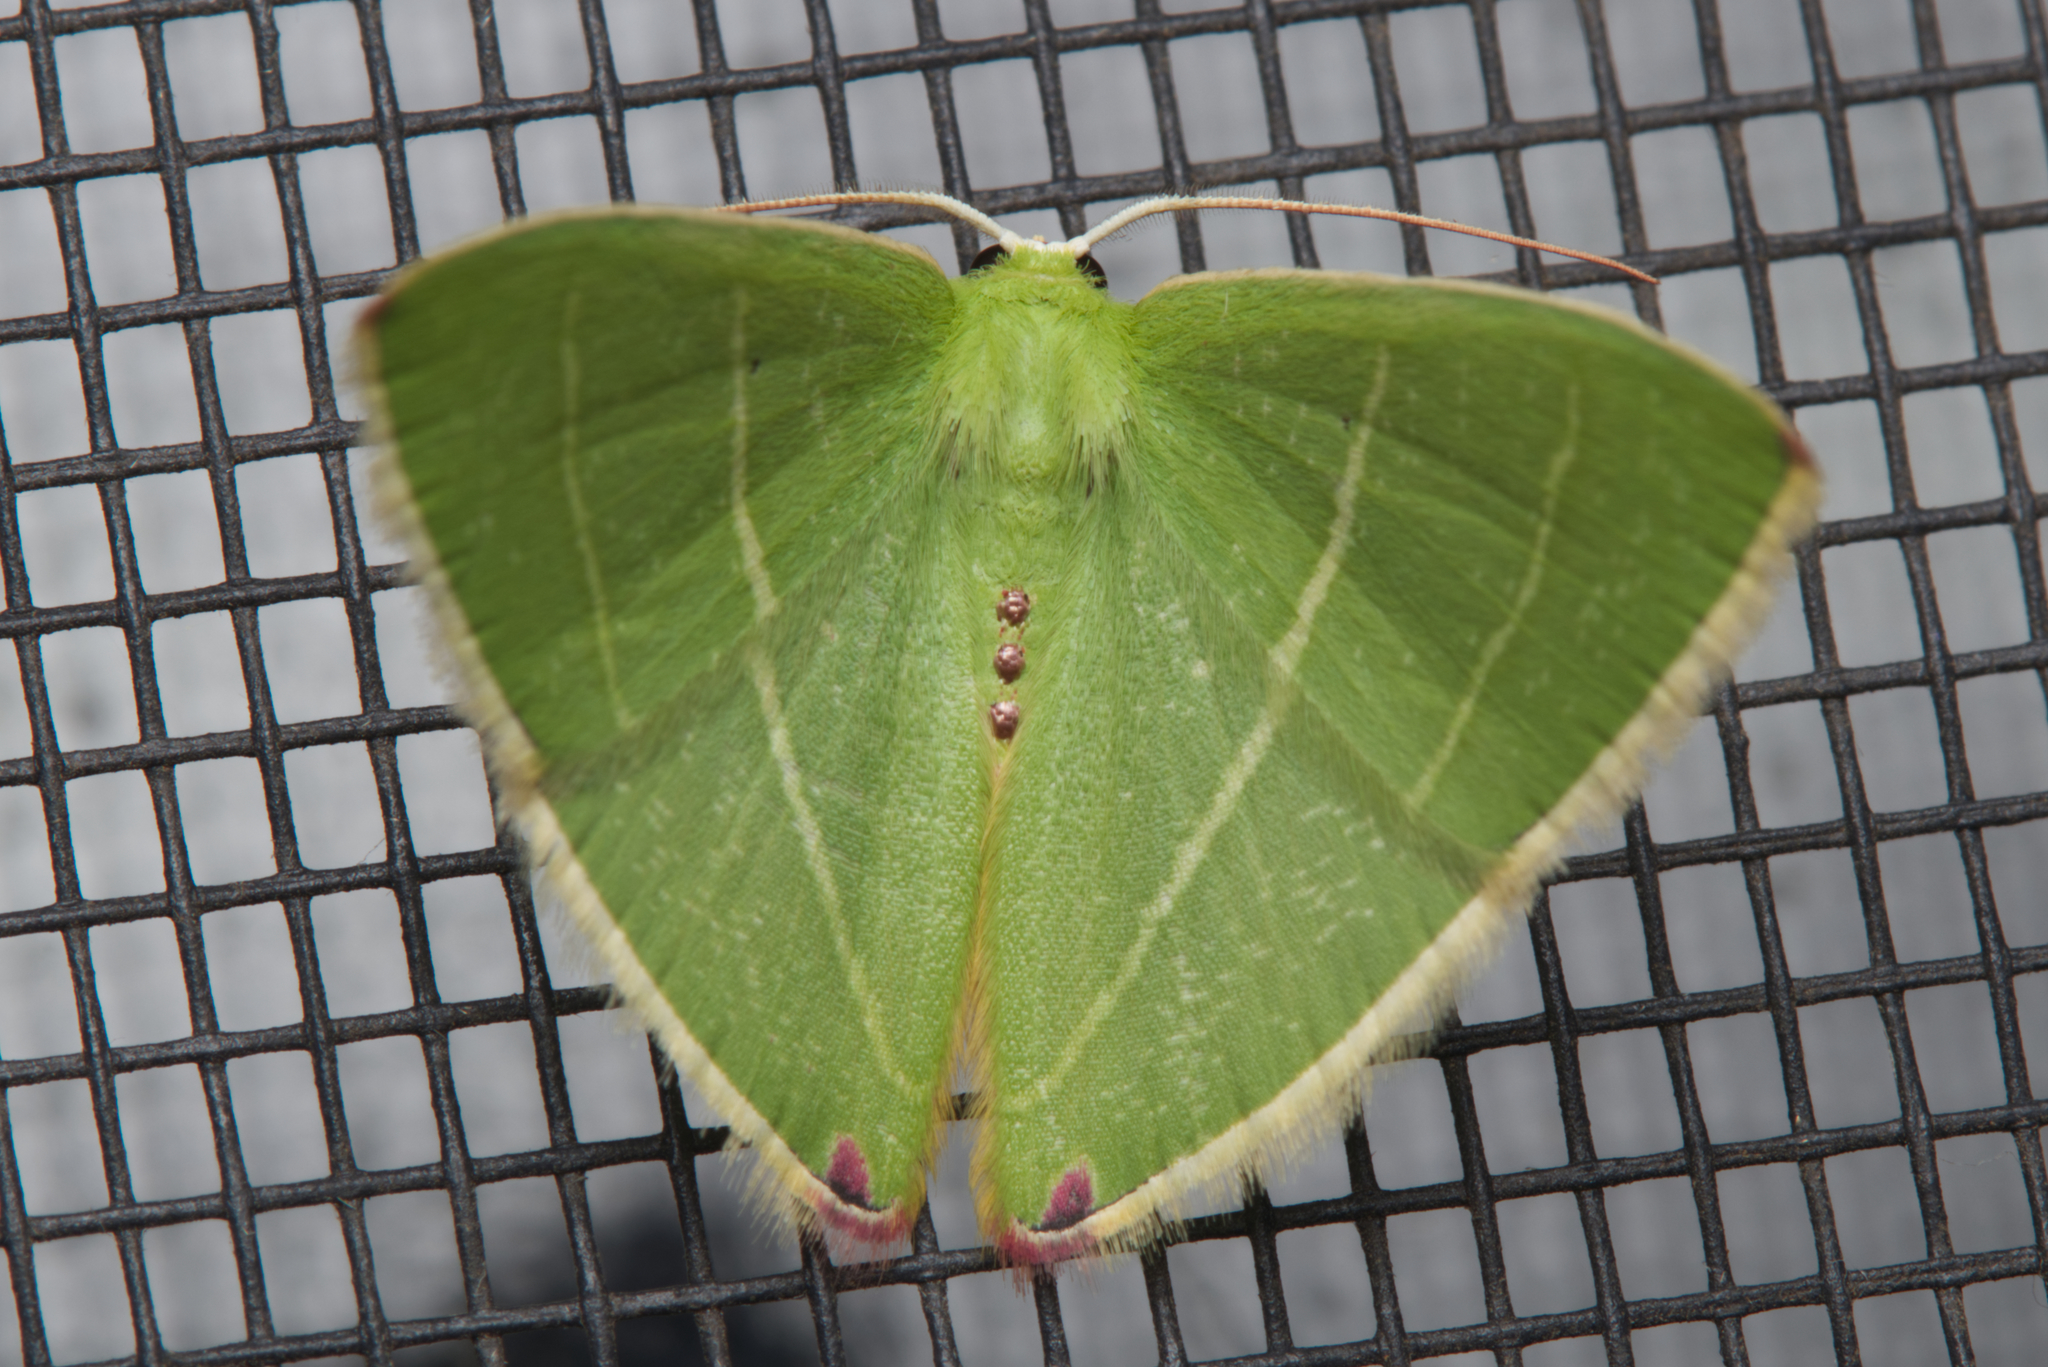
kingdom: Animalia
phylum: Arthropoda
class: Insecta
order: Lepidoptera
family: Geometridae
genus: Urolitha
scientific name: Urolitha bipunctifera
